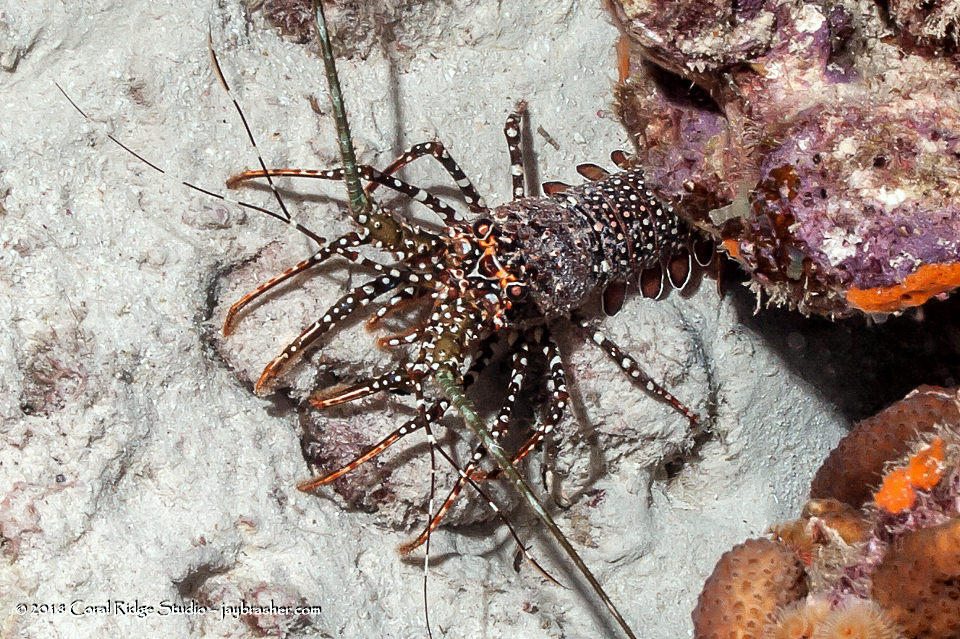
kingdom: Animalia
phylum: Arthropoda
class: Malacostraca
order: Decapoda
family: Palinuridae
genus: Panulirus
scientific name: Panulirus guttatus
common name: Spotted spiny lobster
